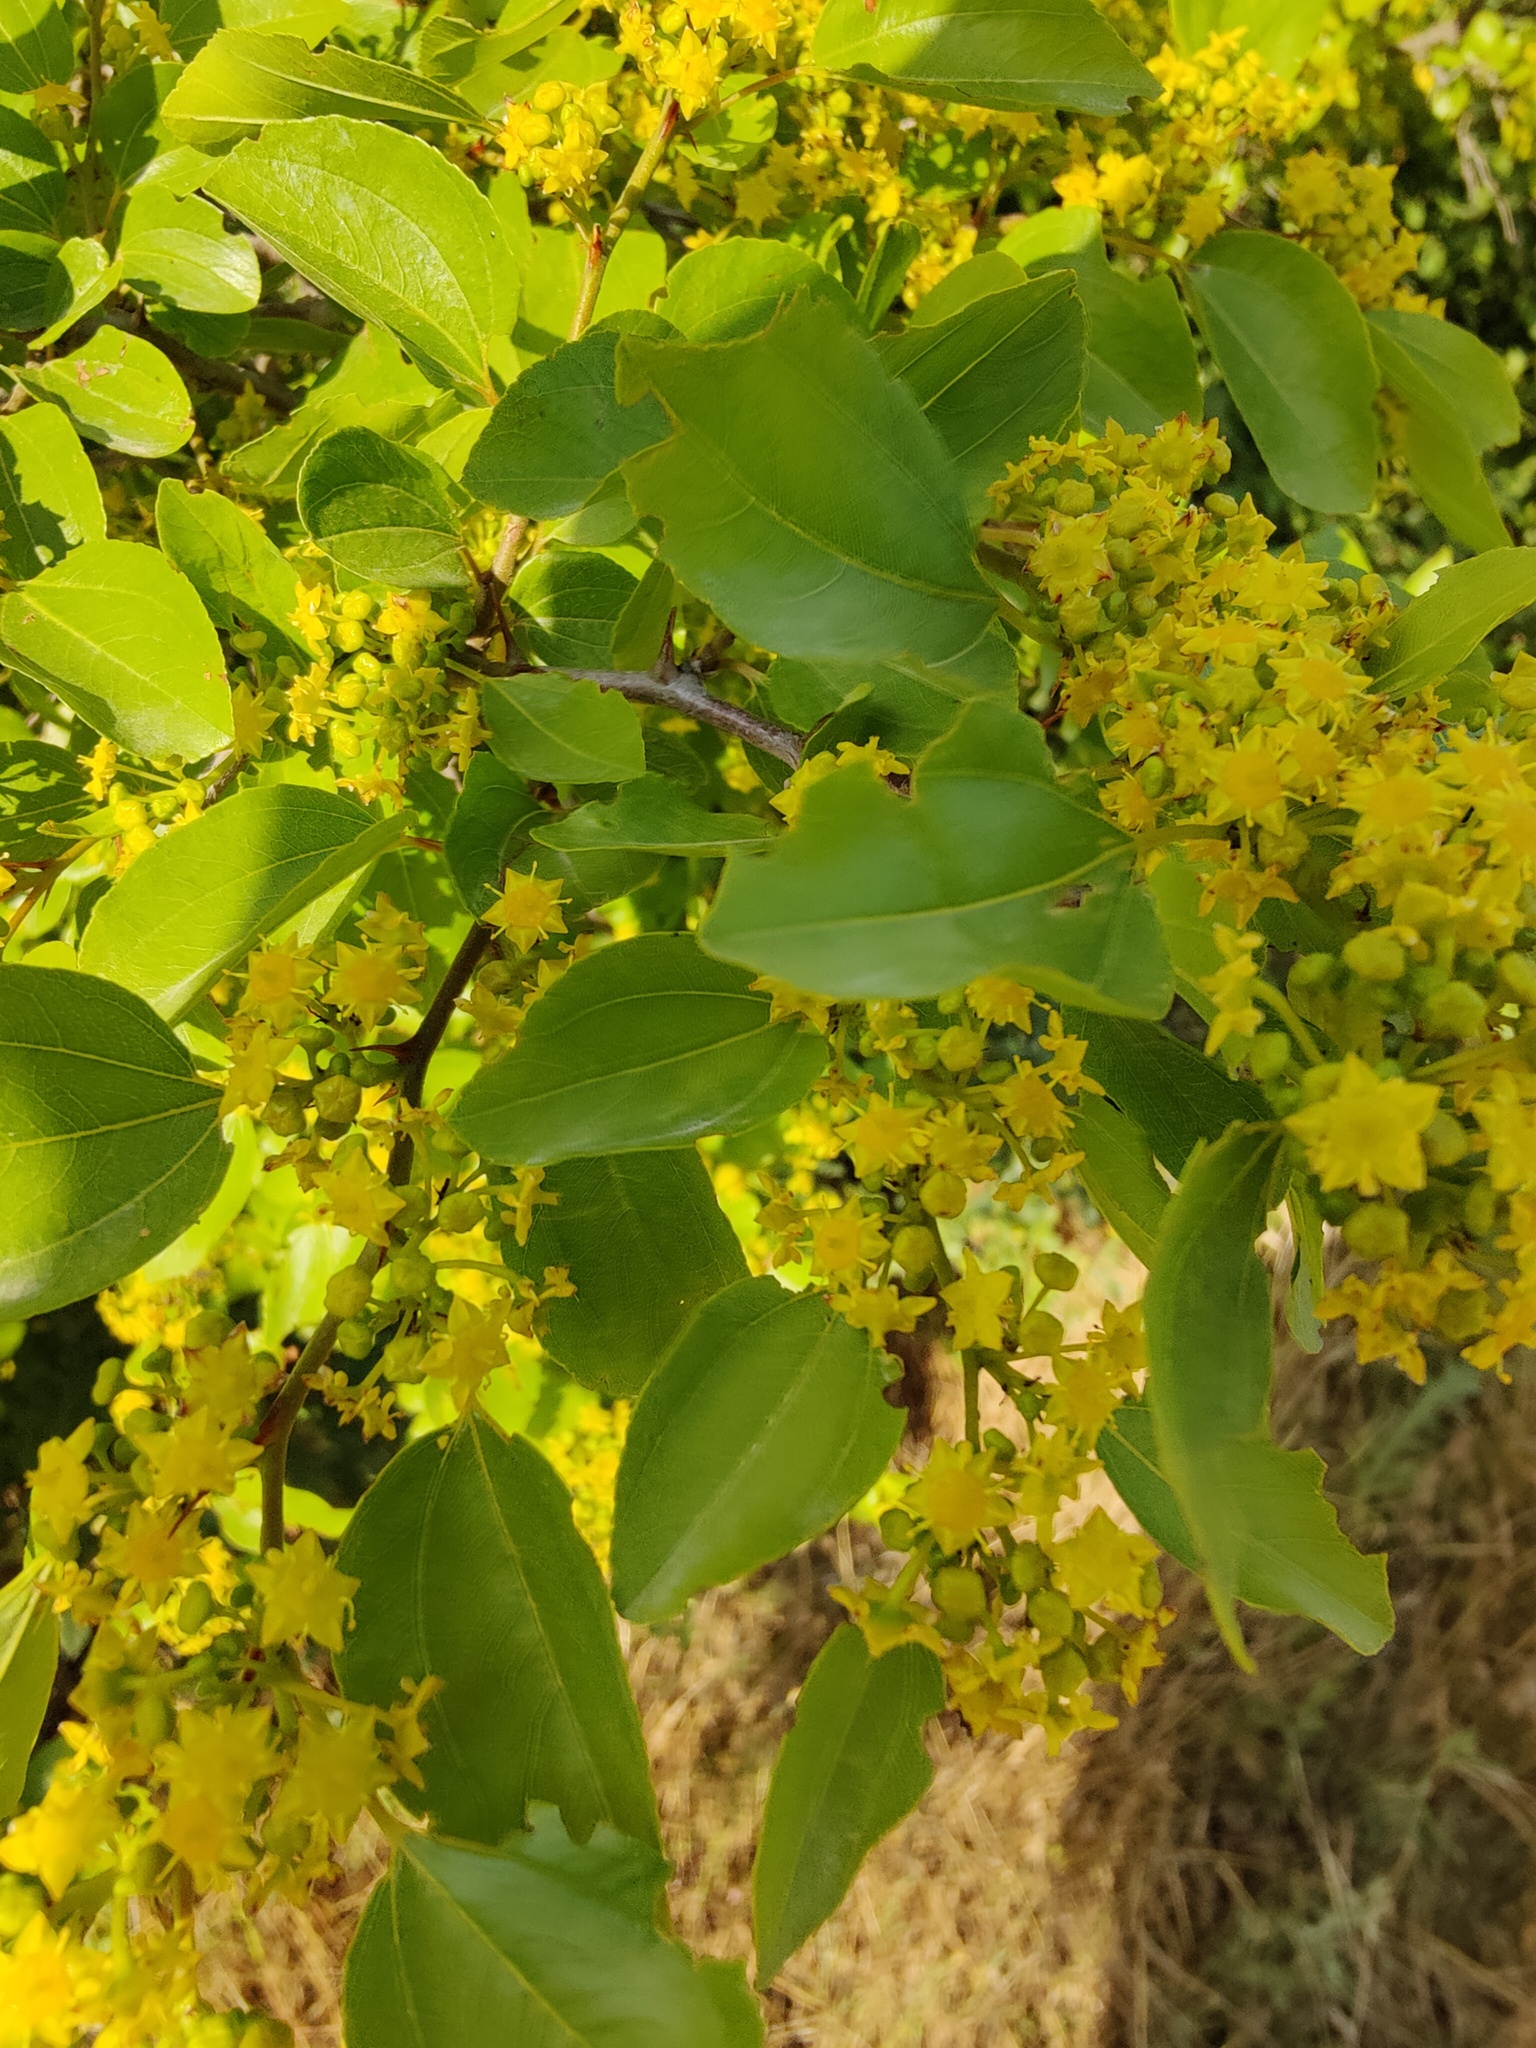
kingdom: Plantae
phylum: Tracheophyta
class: Magnoliopsida
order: Rosales
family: Rhamnaceae
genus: Paliurus
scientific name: Paliurus spina-christi
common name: Jeruselem thorn
